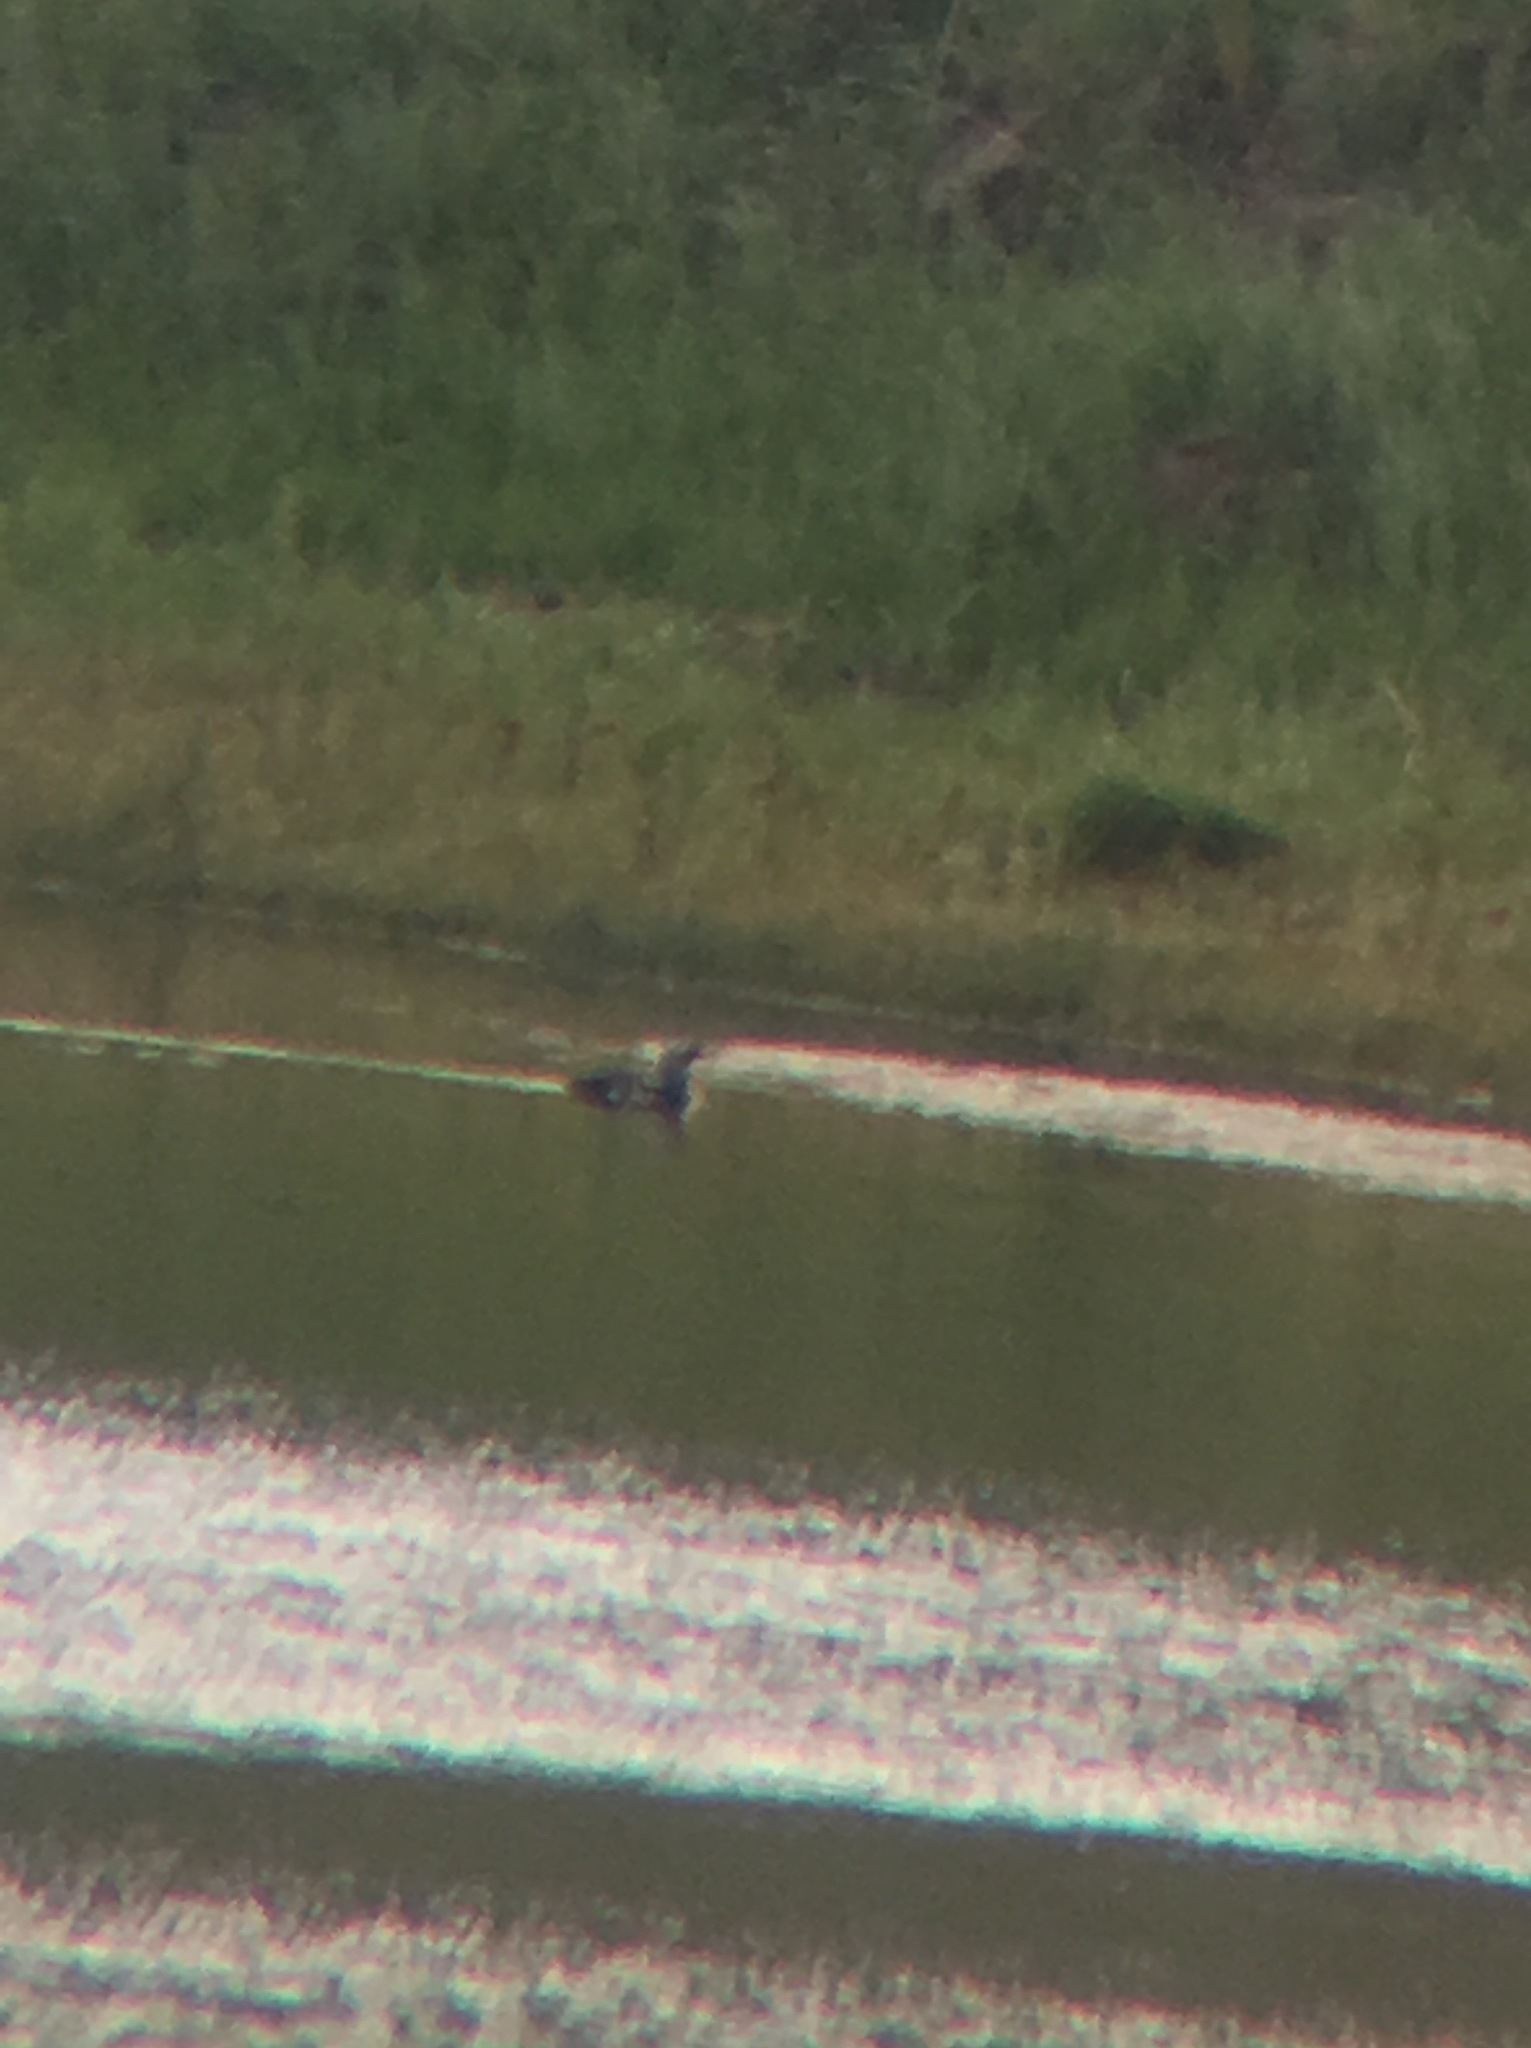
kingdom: Animalia
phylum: Chordata
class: Aves
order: Gaviiformes
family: Gaviidae
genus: Gavia
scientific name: Gavia arctica
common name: Black-throated loon
